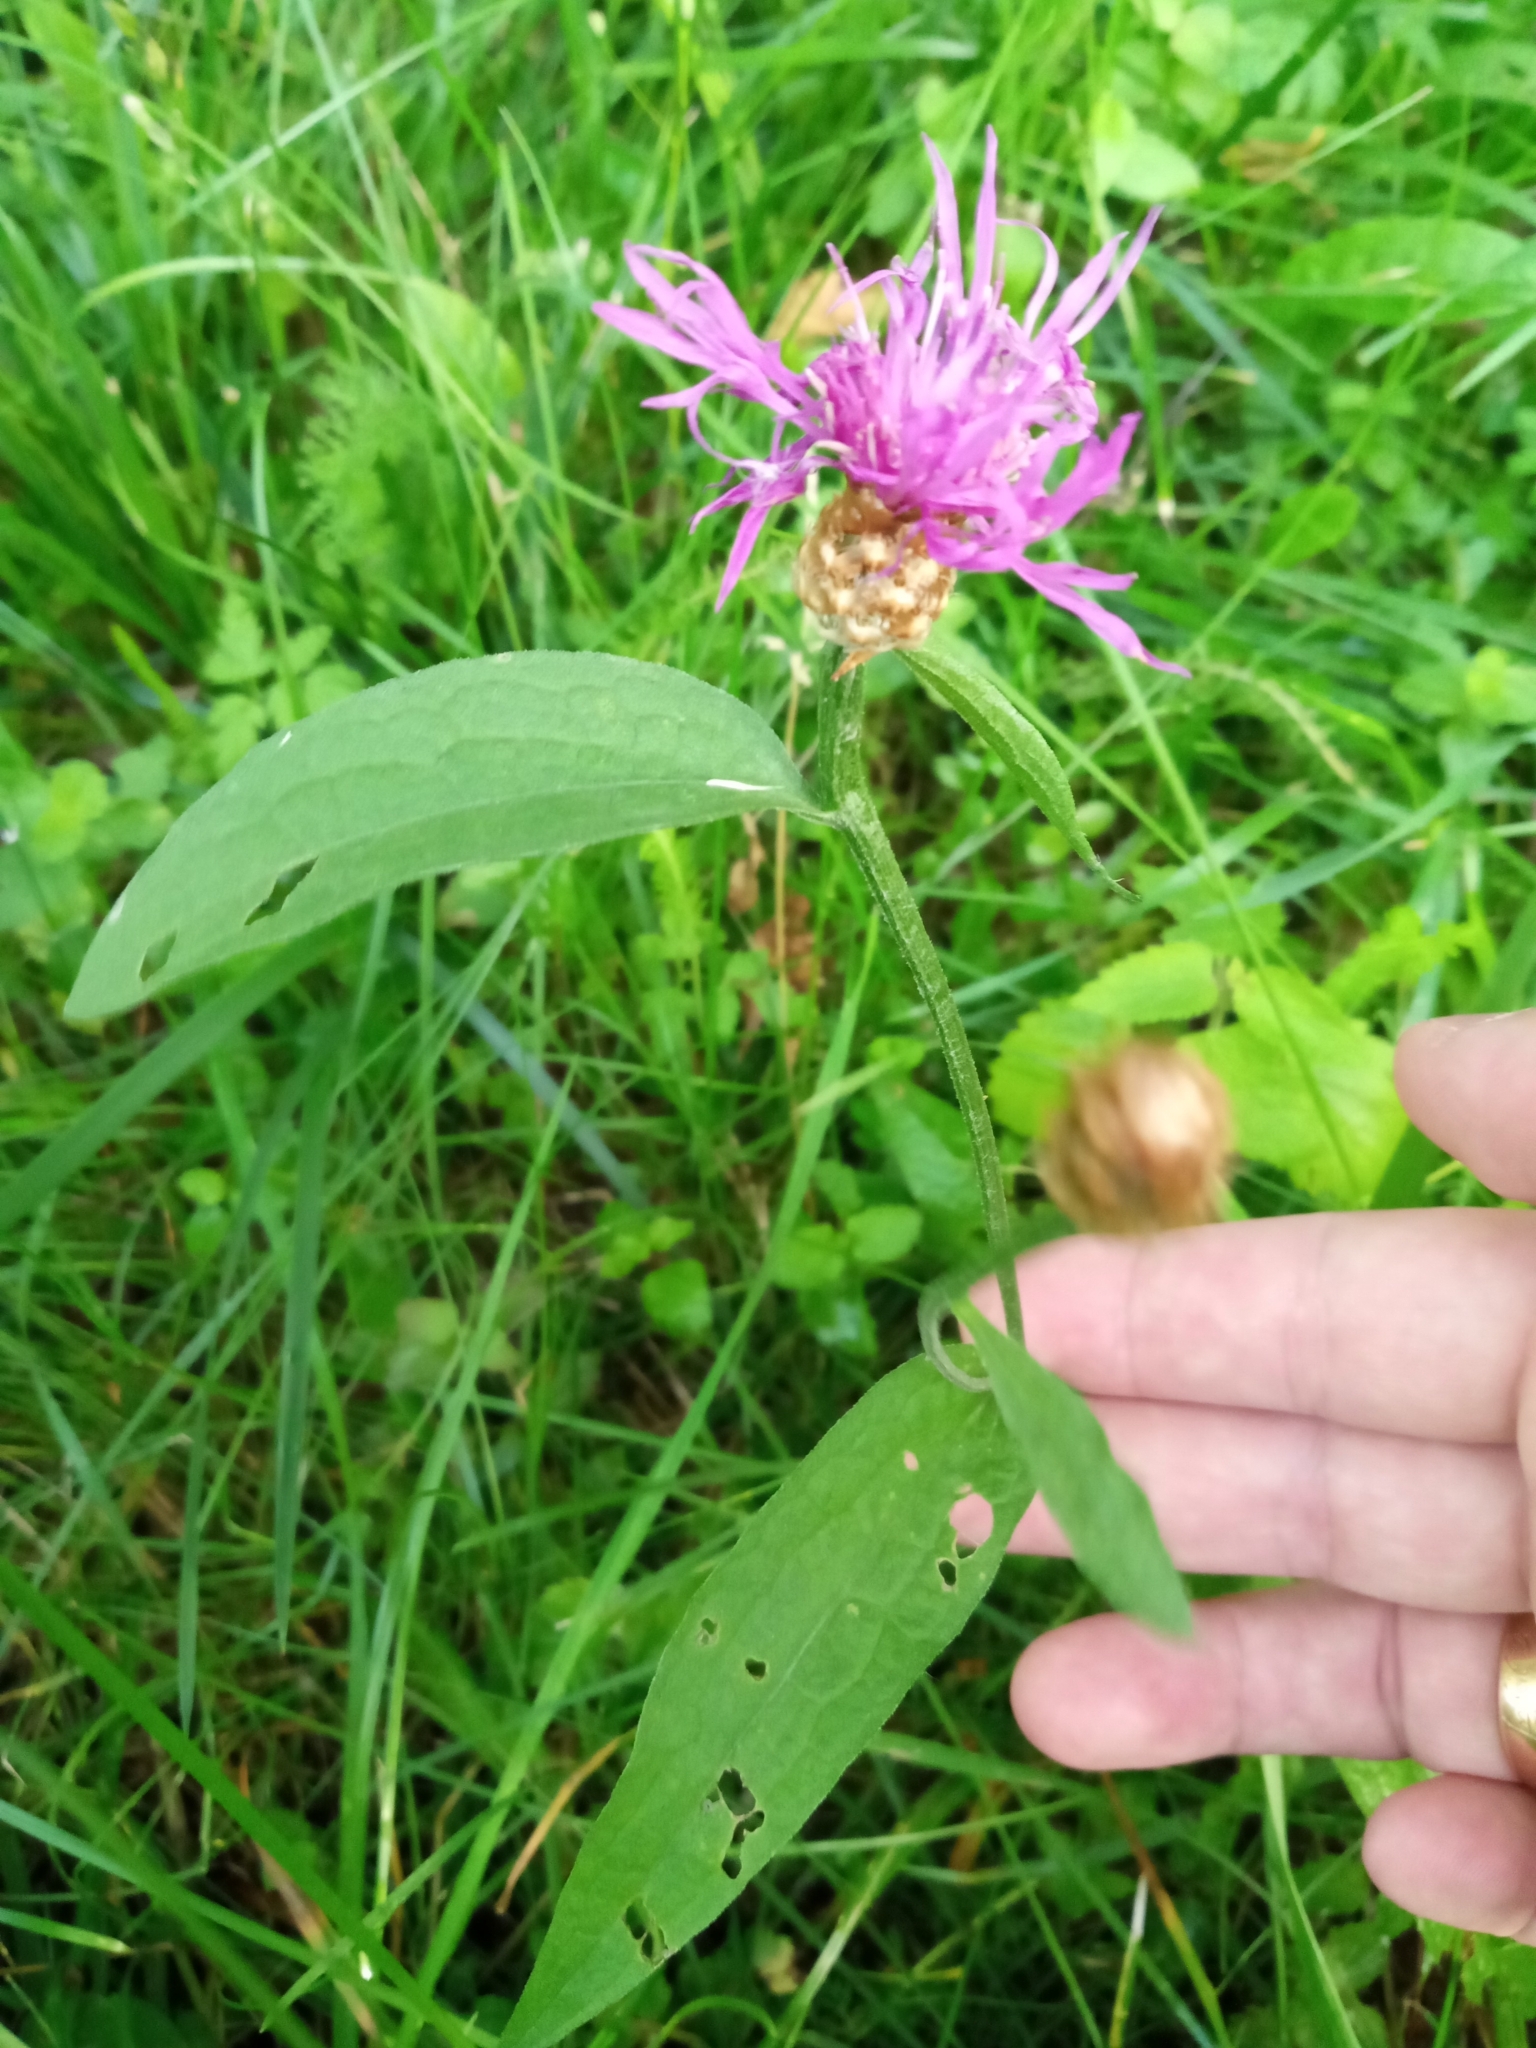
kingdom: Plantae
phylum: Tracheophyta
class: Magnoliopsida
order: Asterales
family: Asteraceae
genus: Centaurea
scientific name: Centaurea jacea
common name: Brown knapweed
